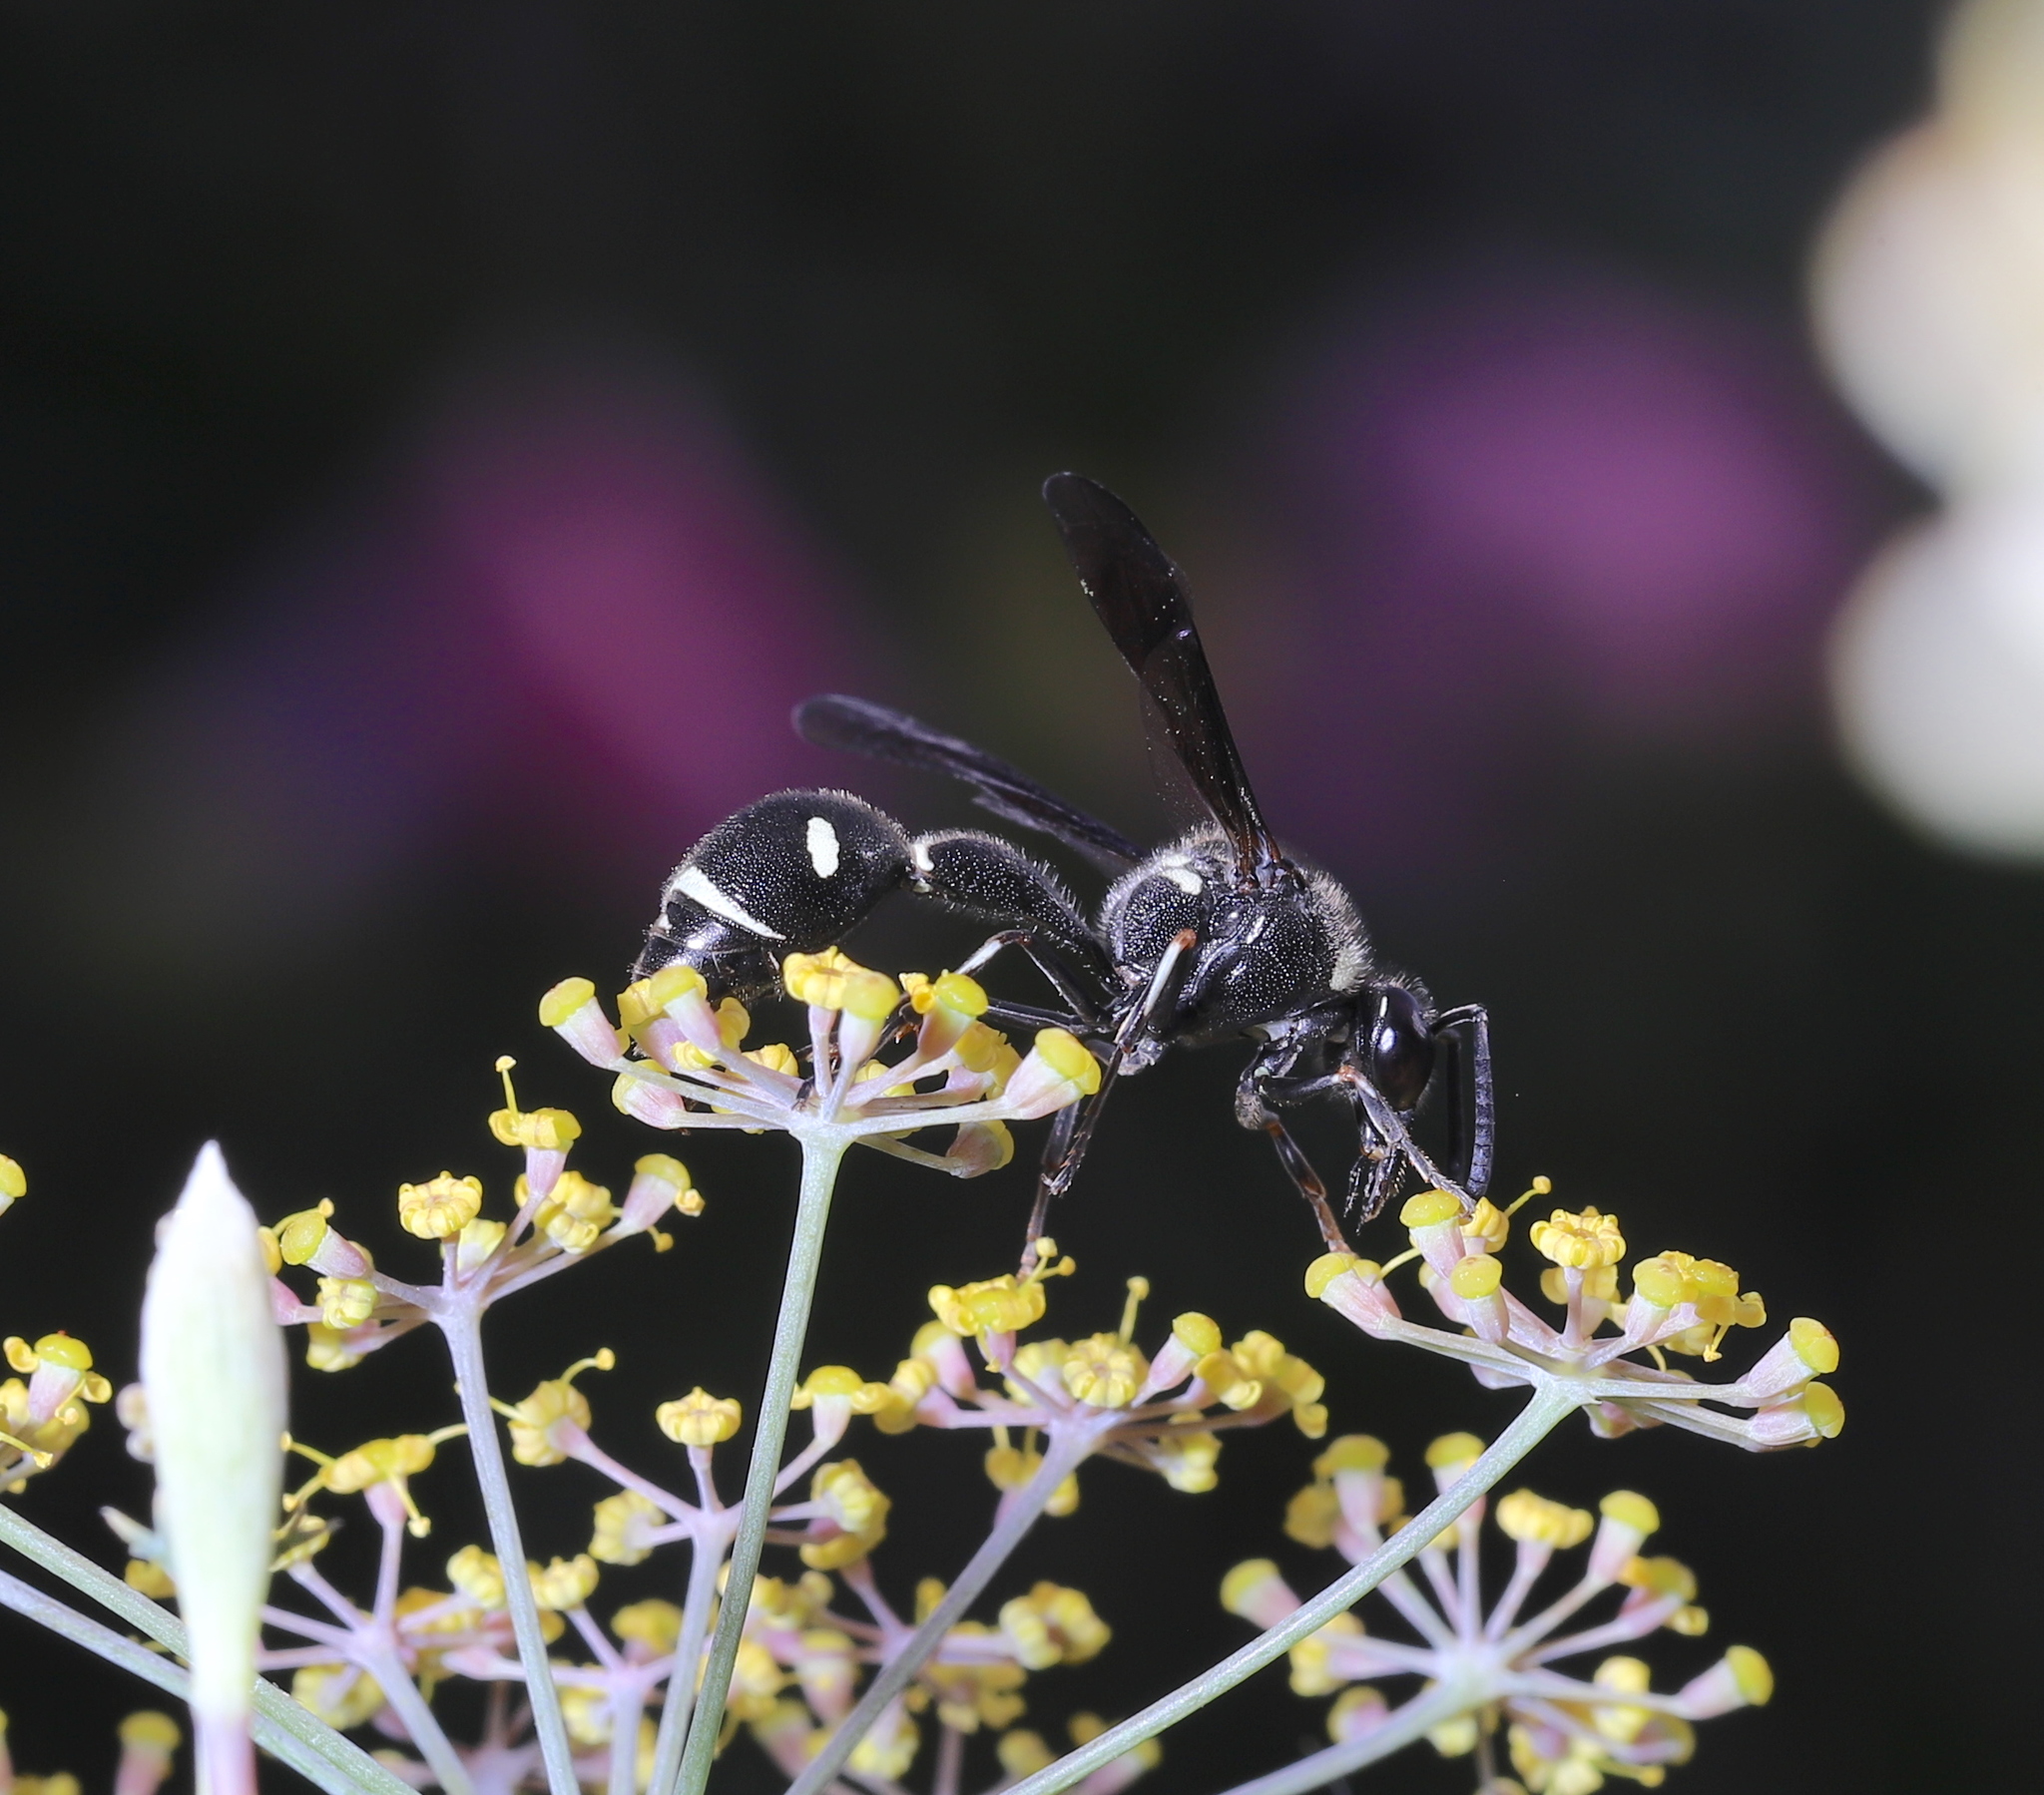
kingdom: Animalia
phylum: Arthropoda
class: Insecta
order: Hymenoptera
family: Vespidae
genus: Eumenes
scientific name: Eumenes fraternus
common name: Fraternal potter wasp
